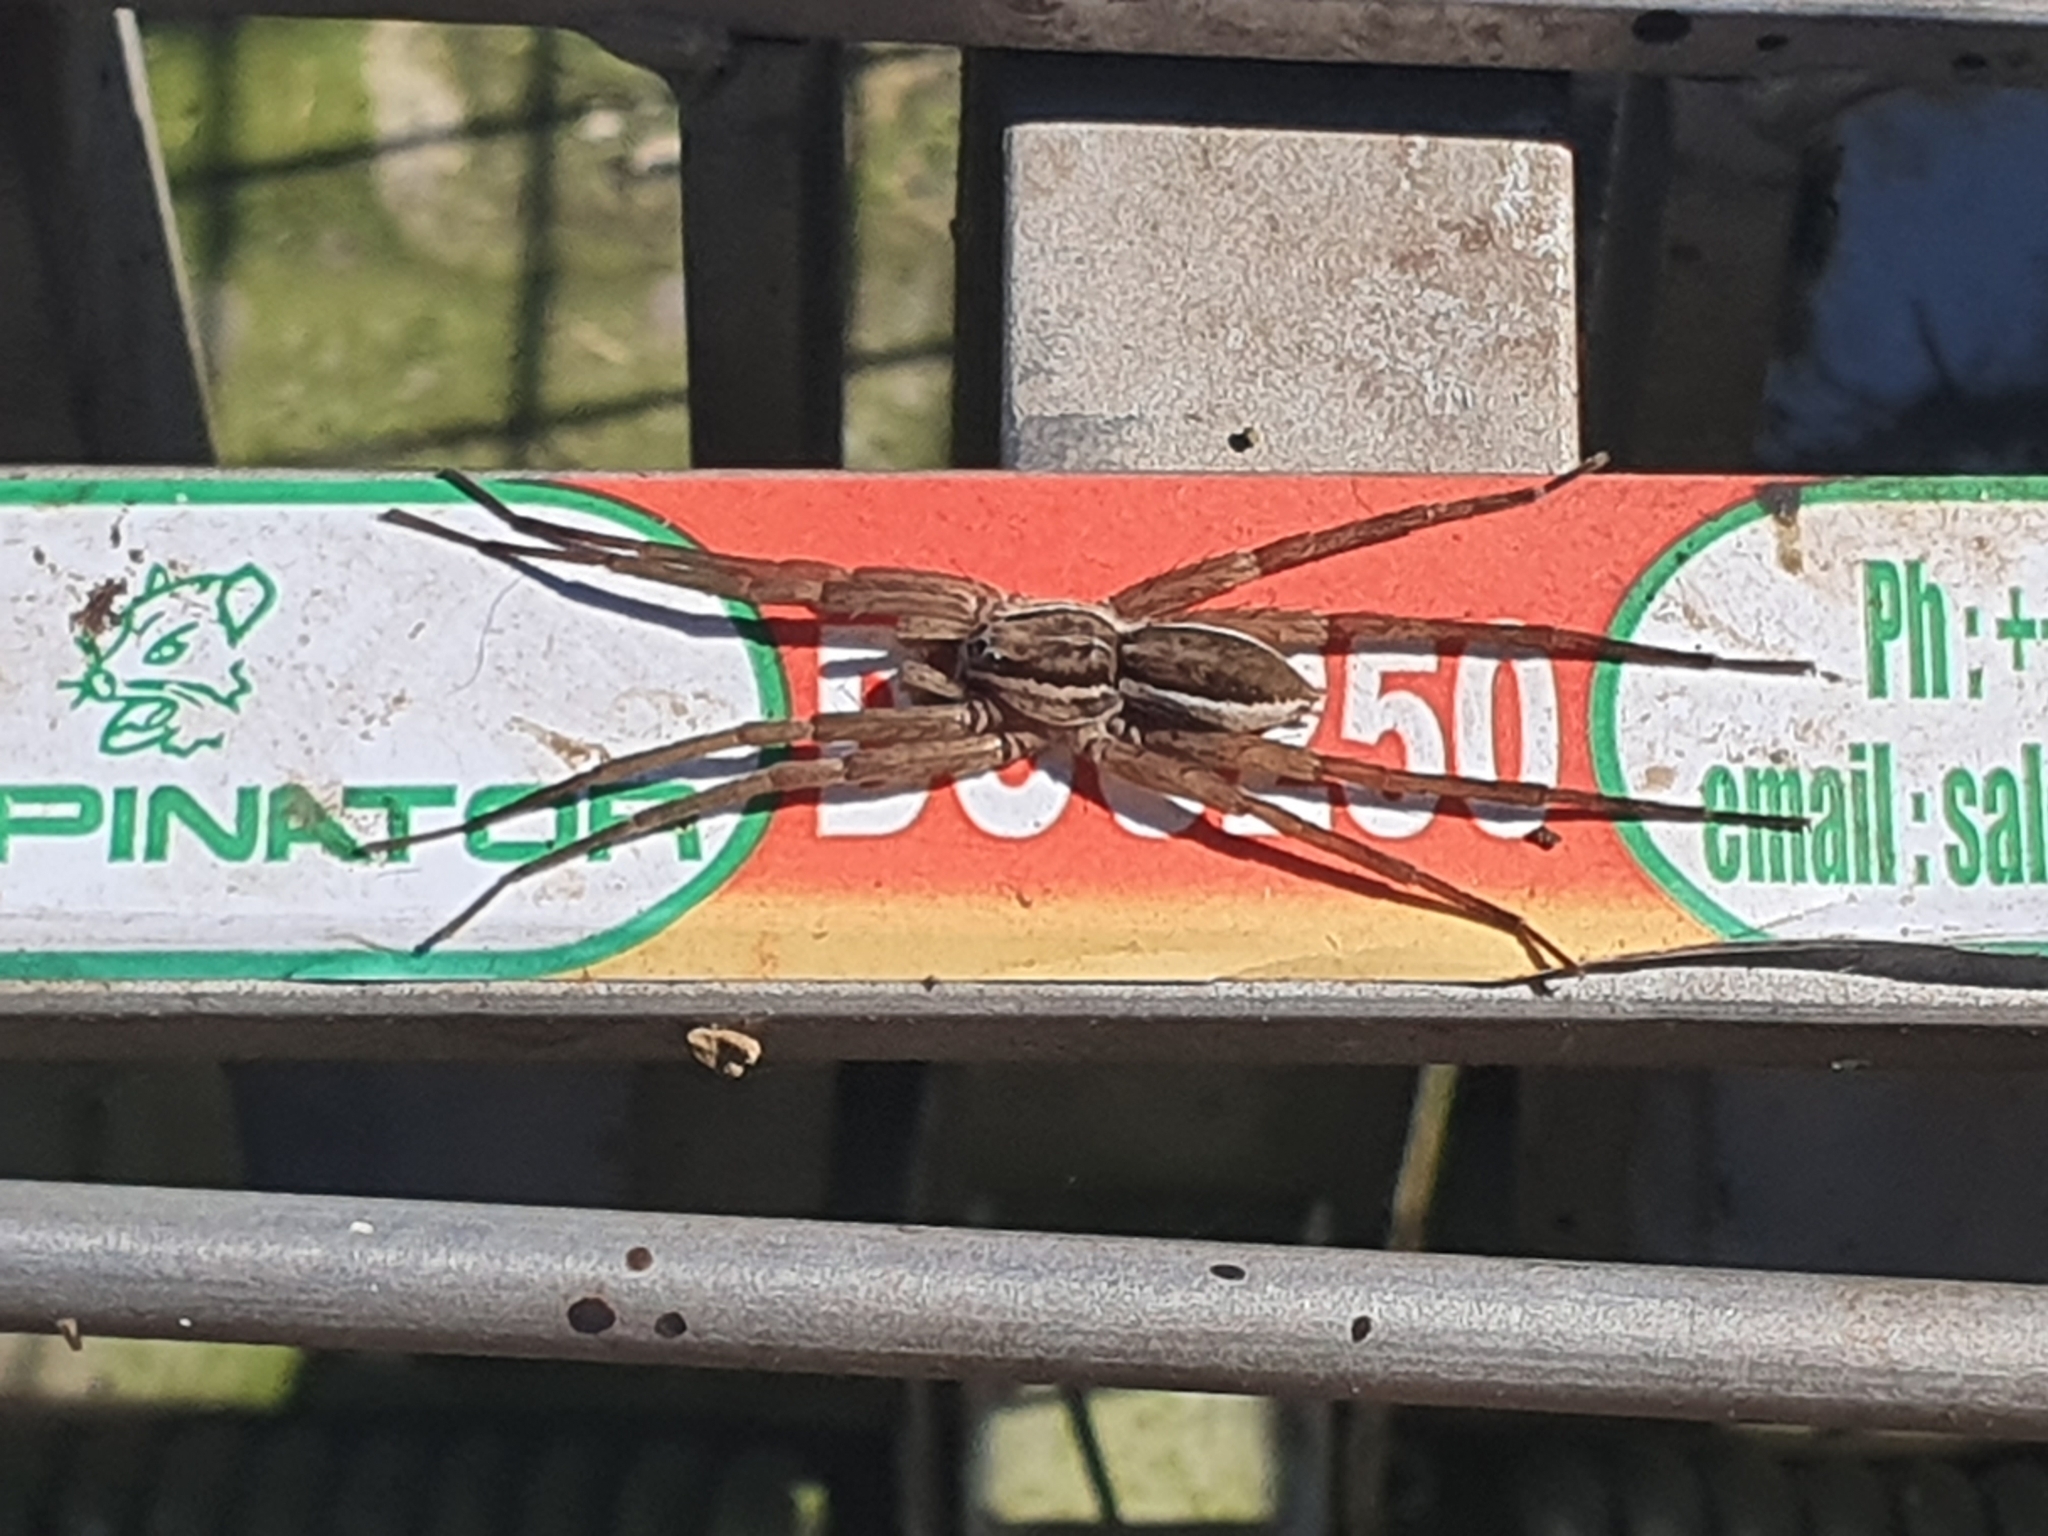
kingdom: Animalia
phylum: Arthropoda
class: Arachnida
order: Araneae
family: Pisauridae
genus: Dolomedes
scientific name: Dolomedes minor
